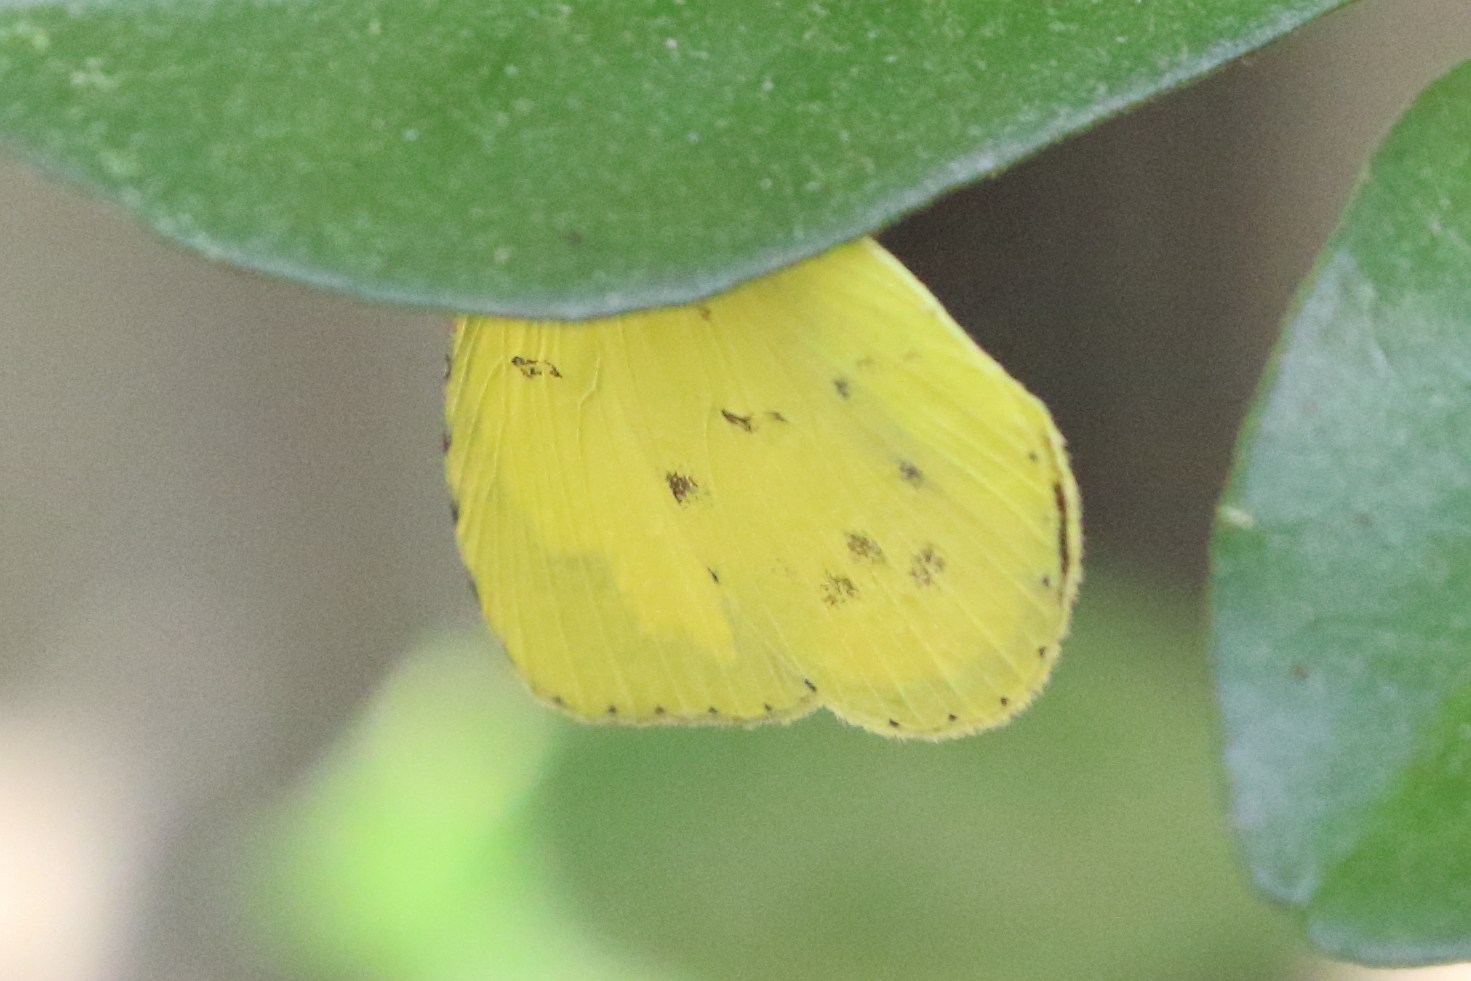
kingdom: Animalia
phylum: Arthropoda
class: Insecta
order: Lepidoptera
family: Pieridae
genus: Eurema
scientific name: Eurema hecabe
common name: Pale grass yellow
